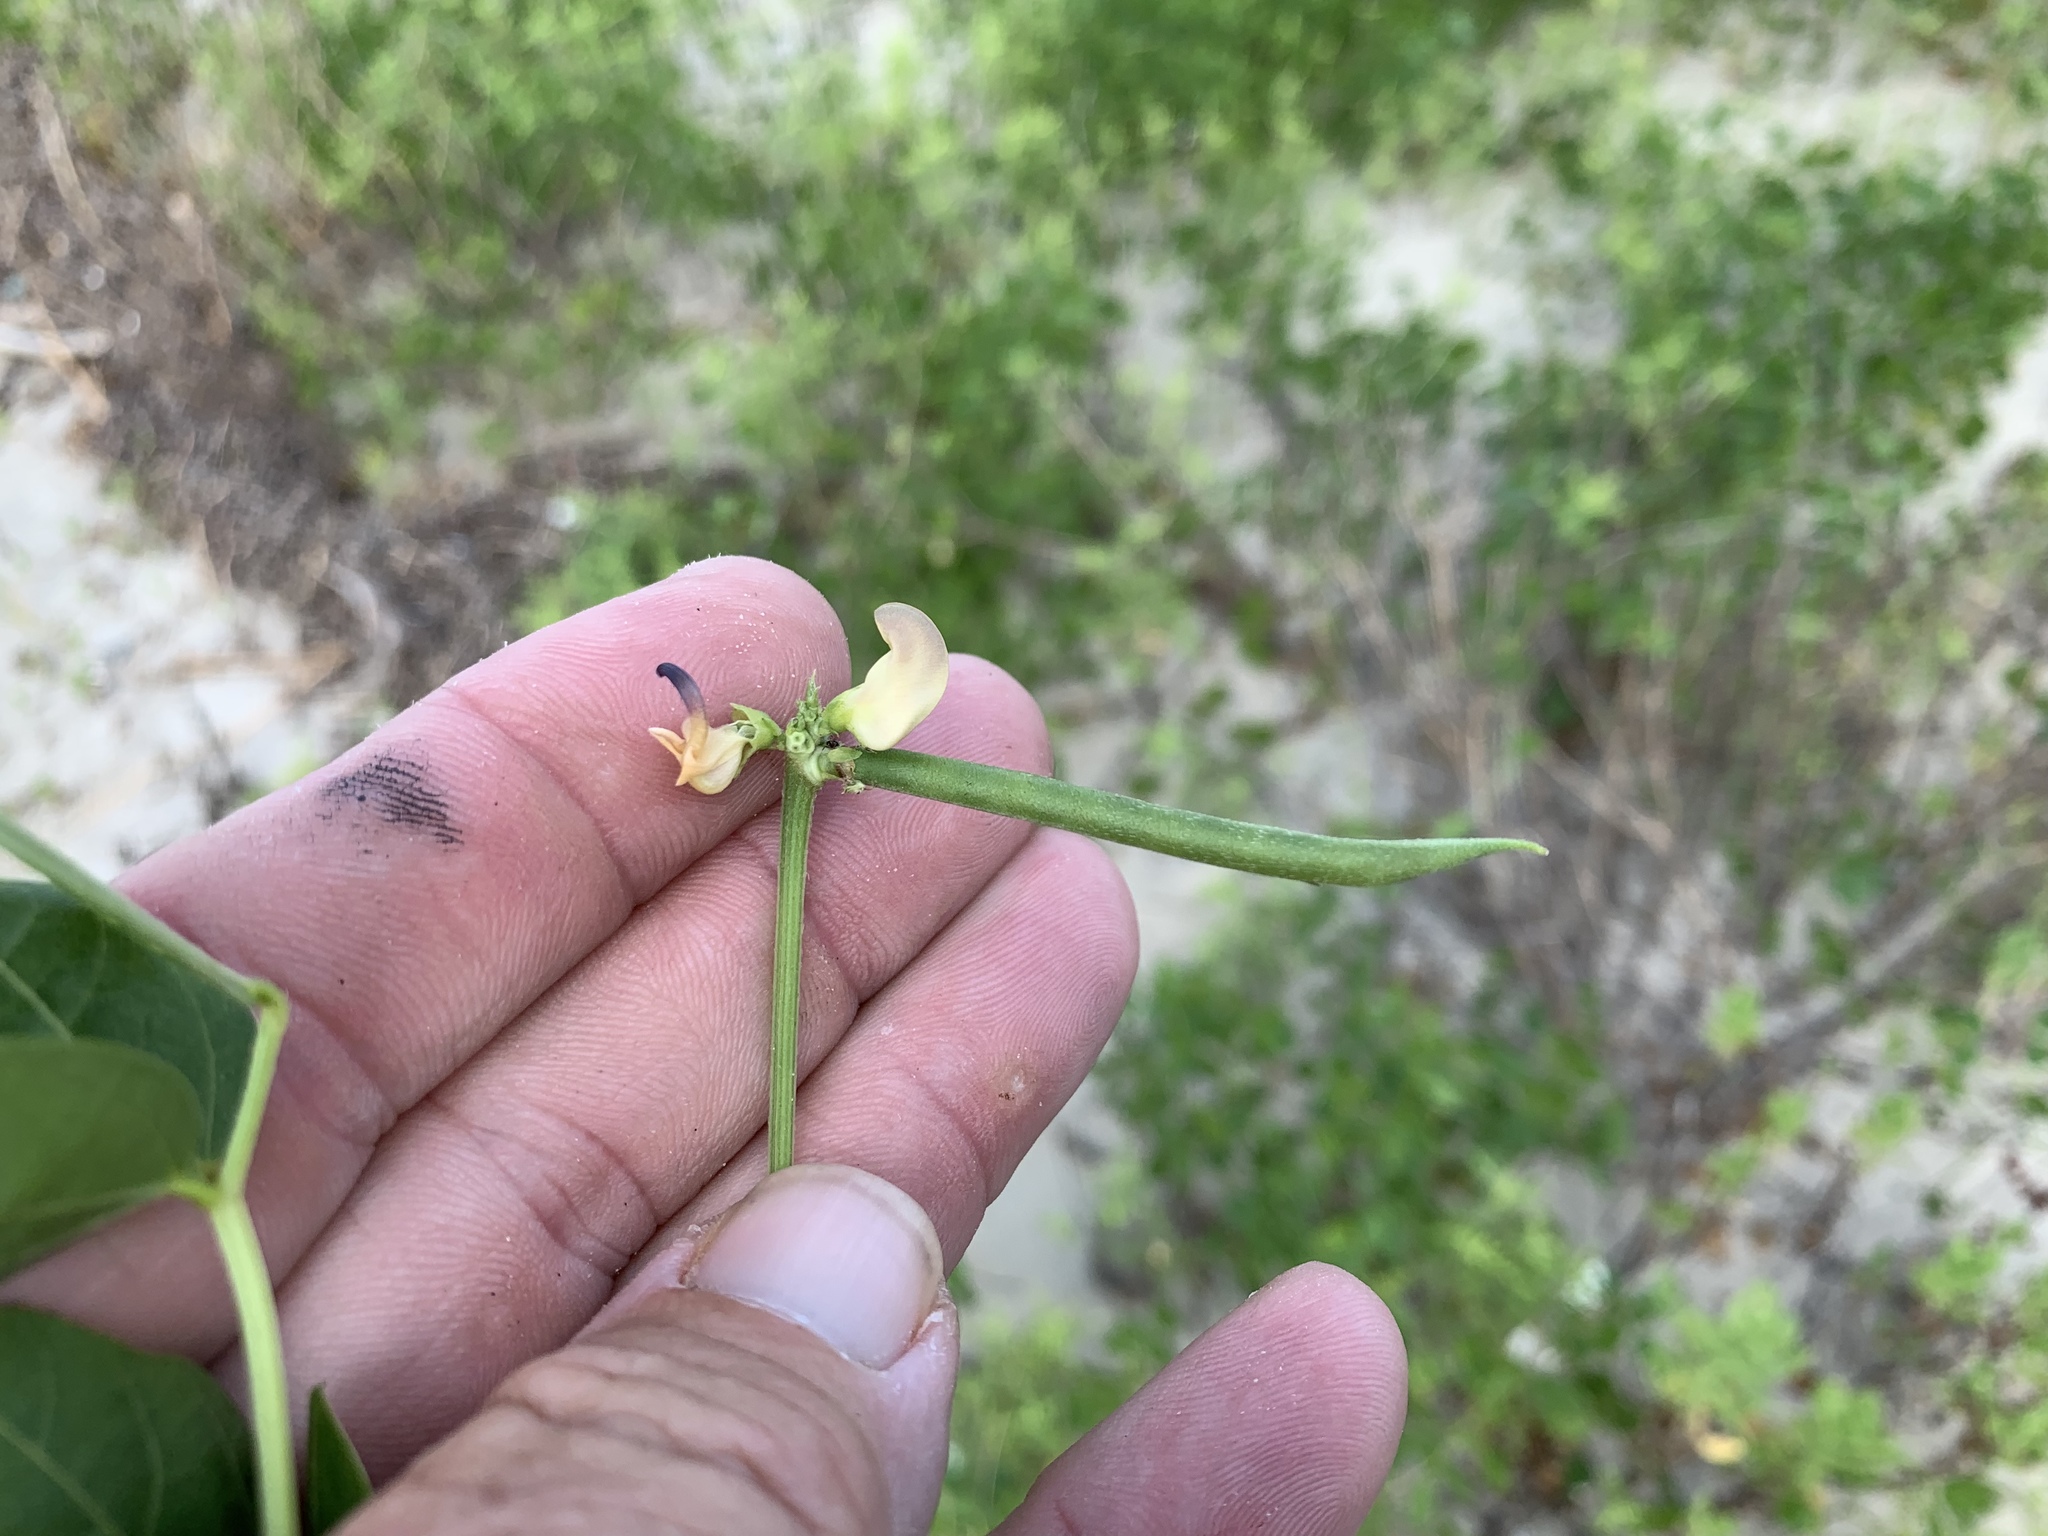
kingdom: Plantae
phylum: Tracheophyta
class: Magnoliopsida
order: Fabales
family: Fabaceae
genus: Strophostyles
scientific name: Strophostyles helvola
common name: Trailing wild bean
